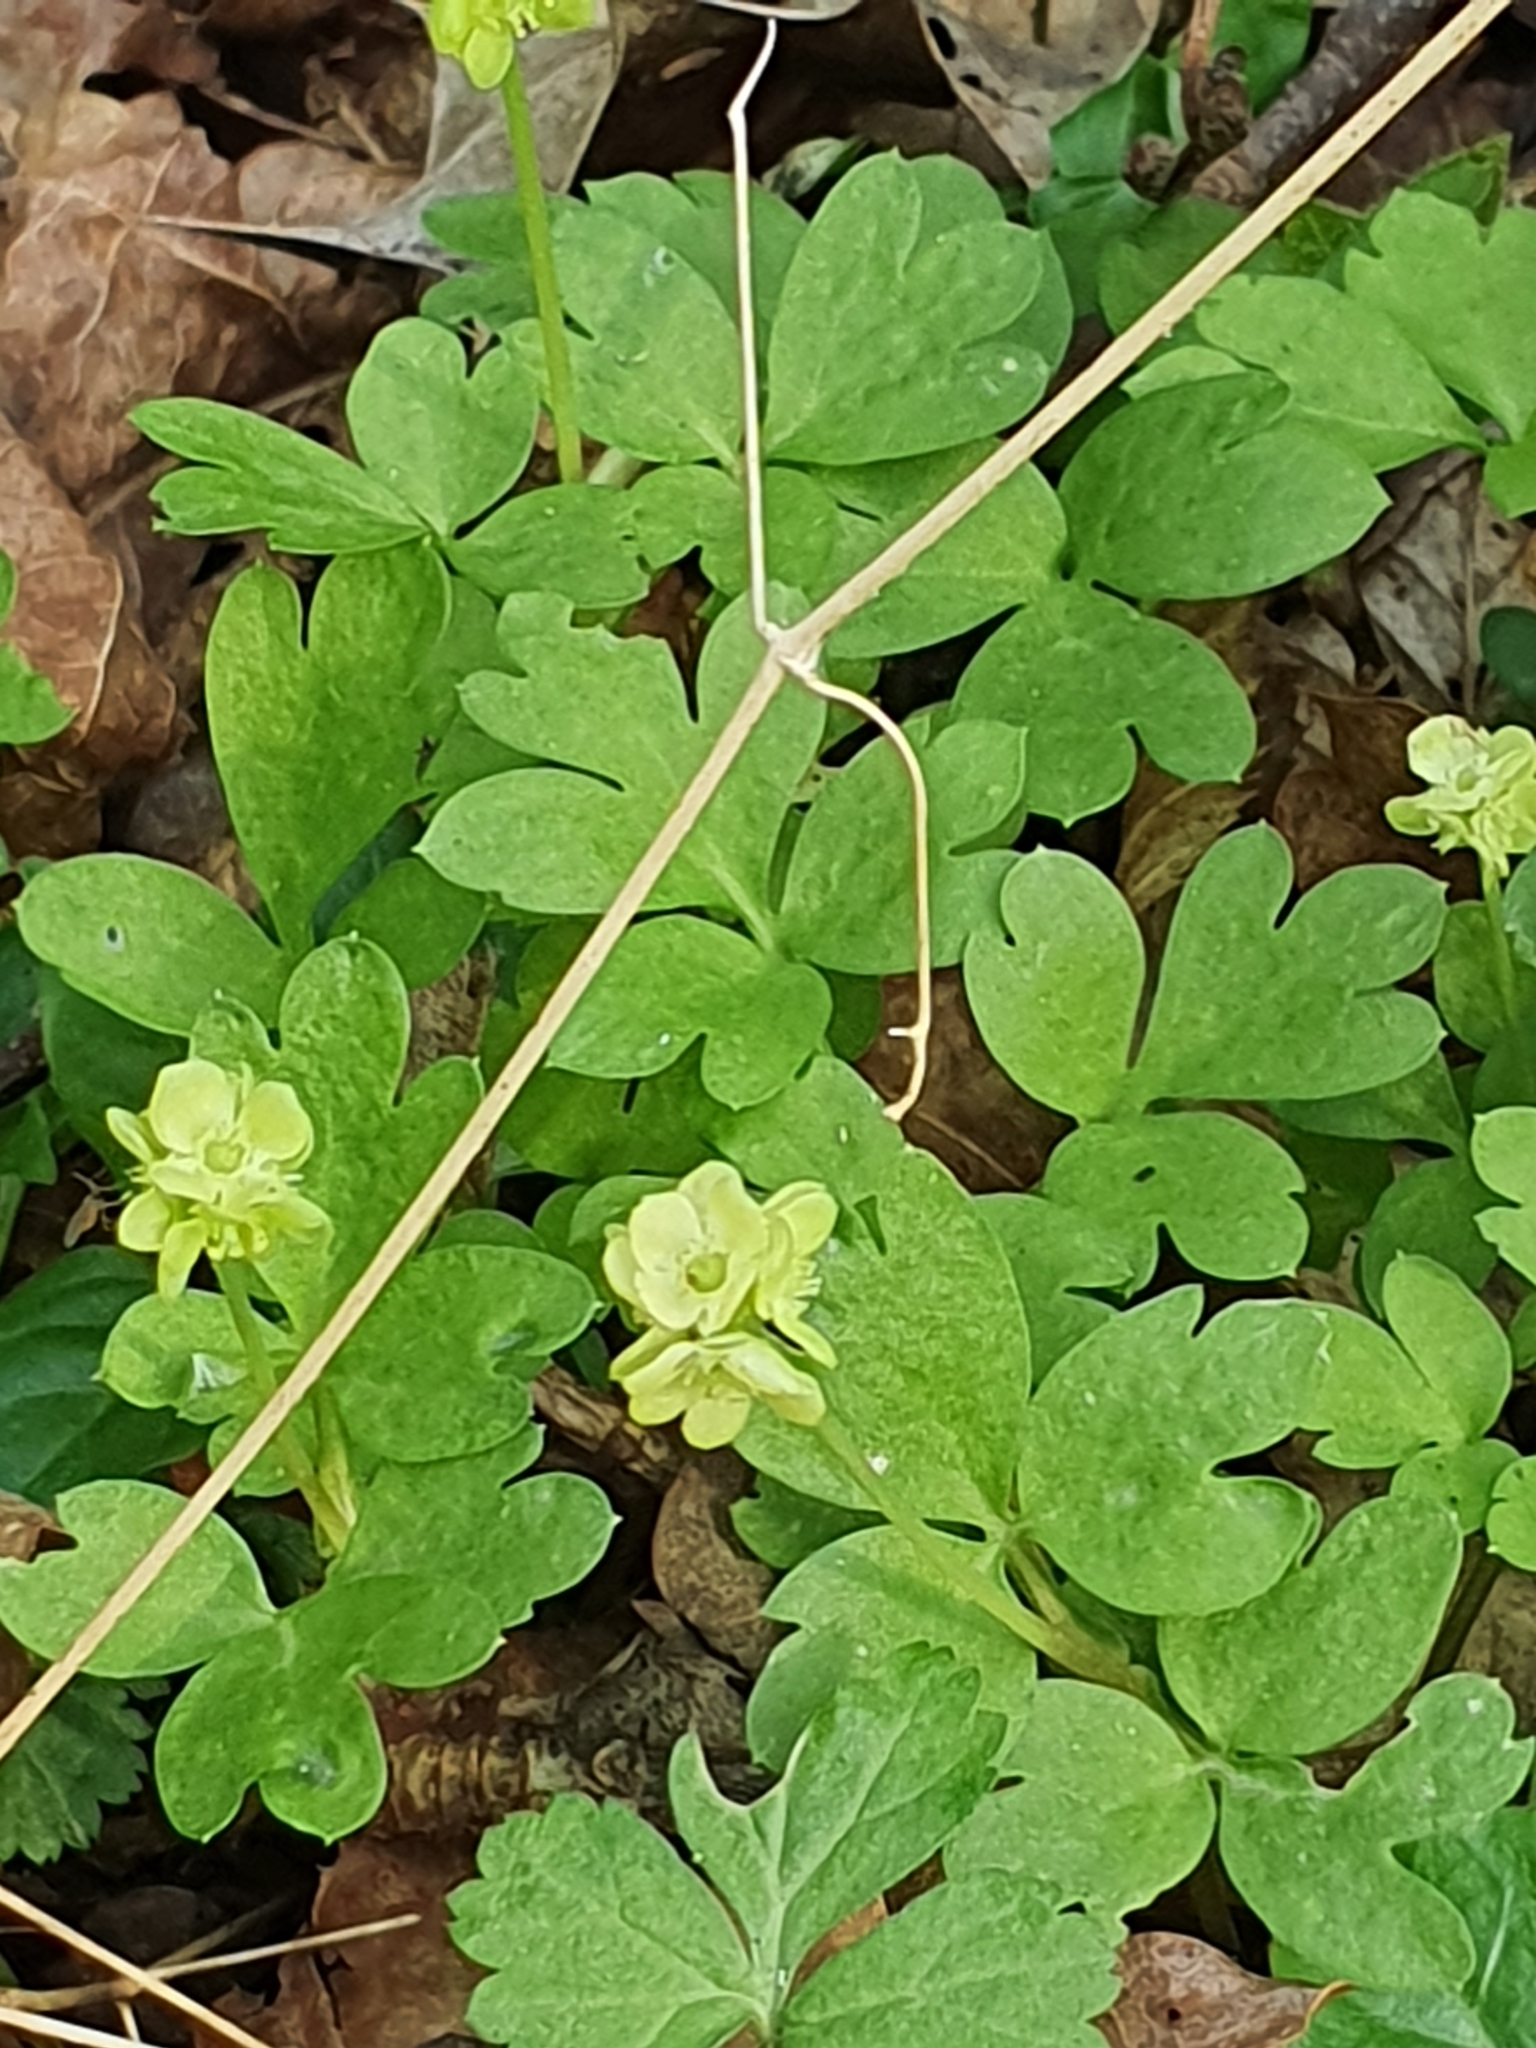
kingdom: Plantae
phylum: Tracheophyta
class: Magnoliopsida
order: Dipsacales
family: Viburnaceae
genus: Adoxa
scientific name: Adoxa moschatellina
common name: Moschatel
